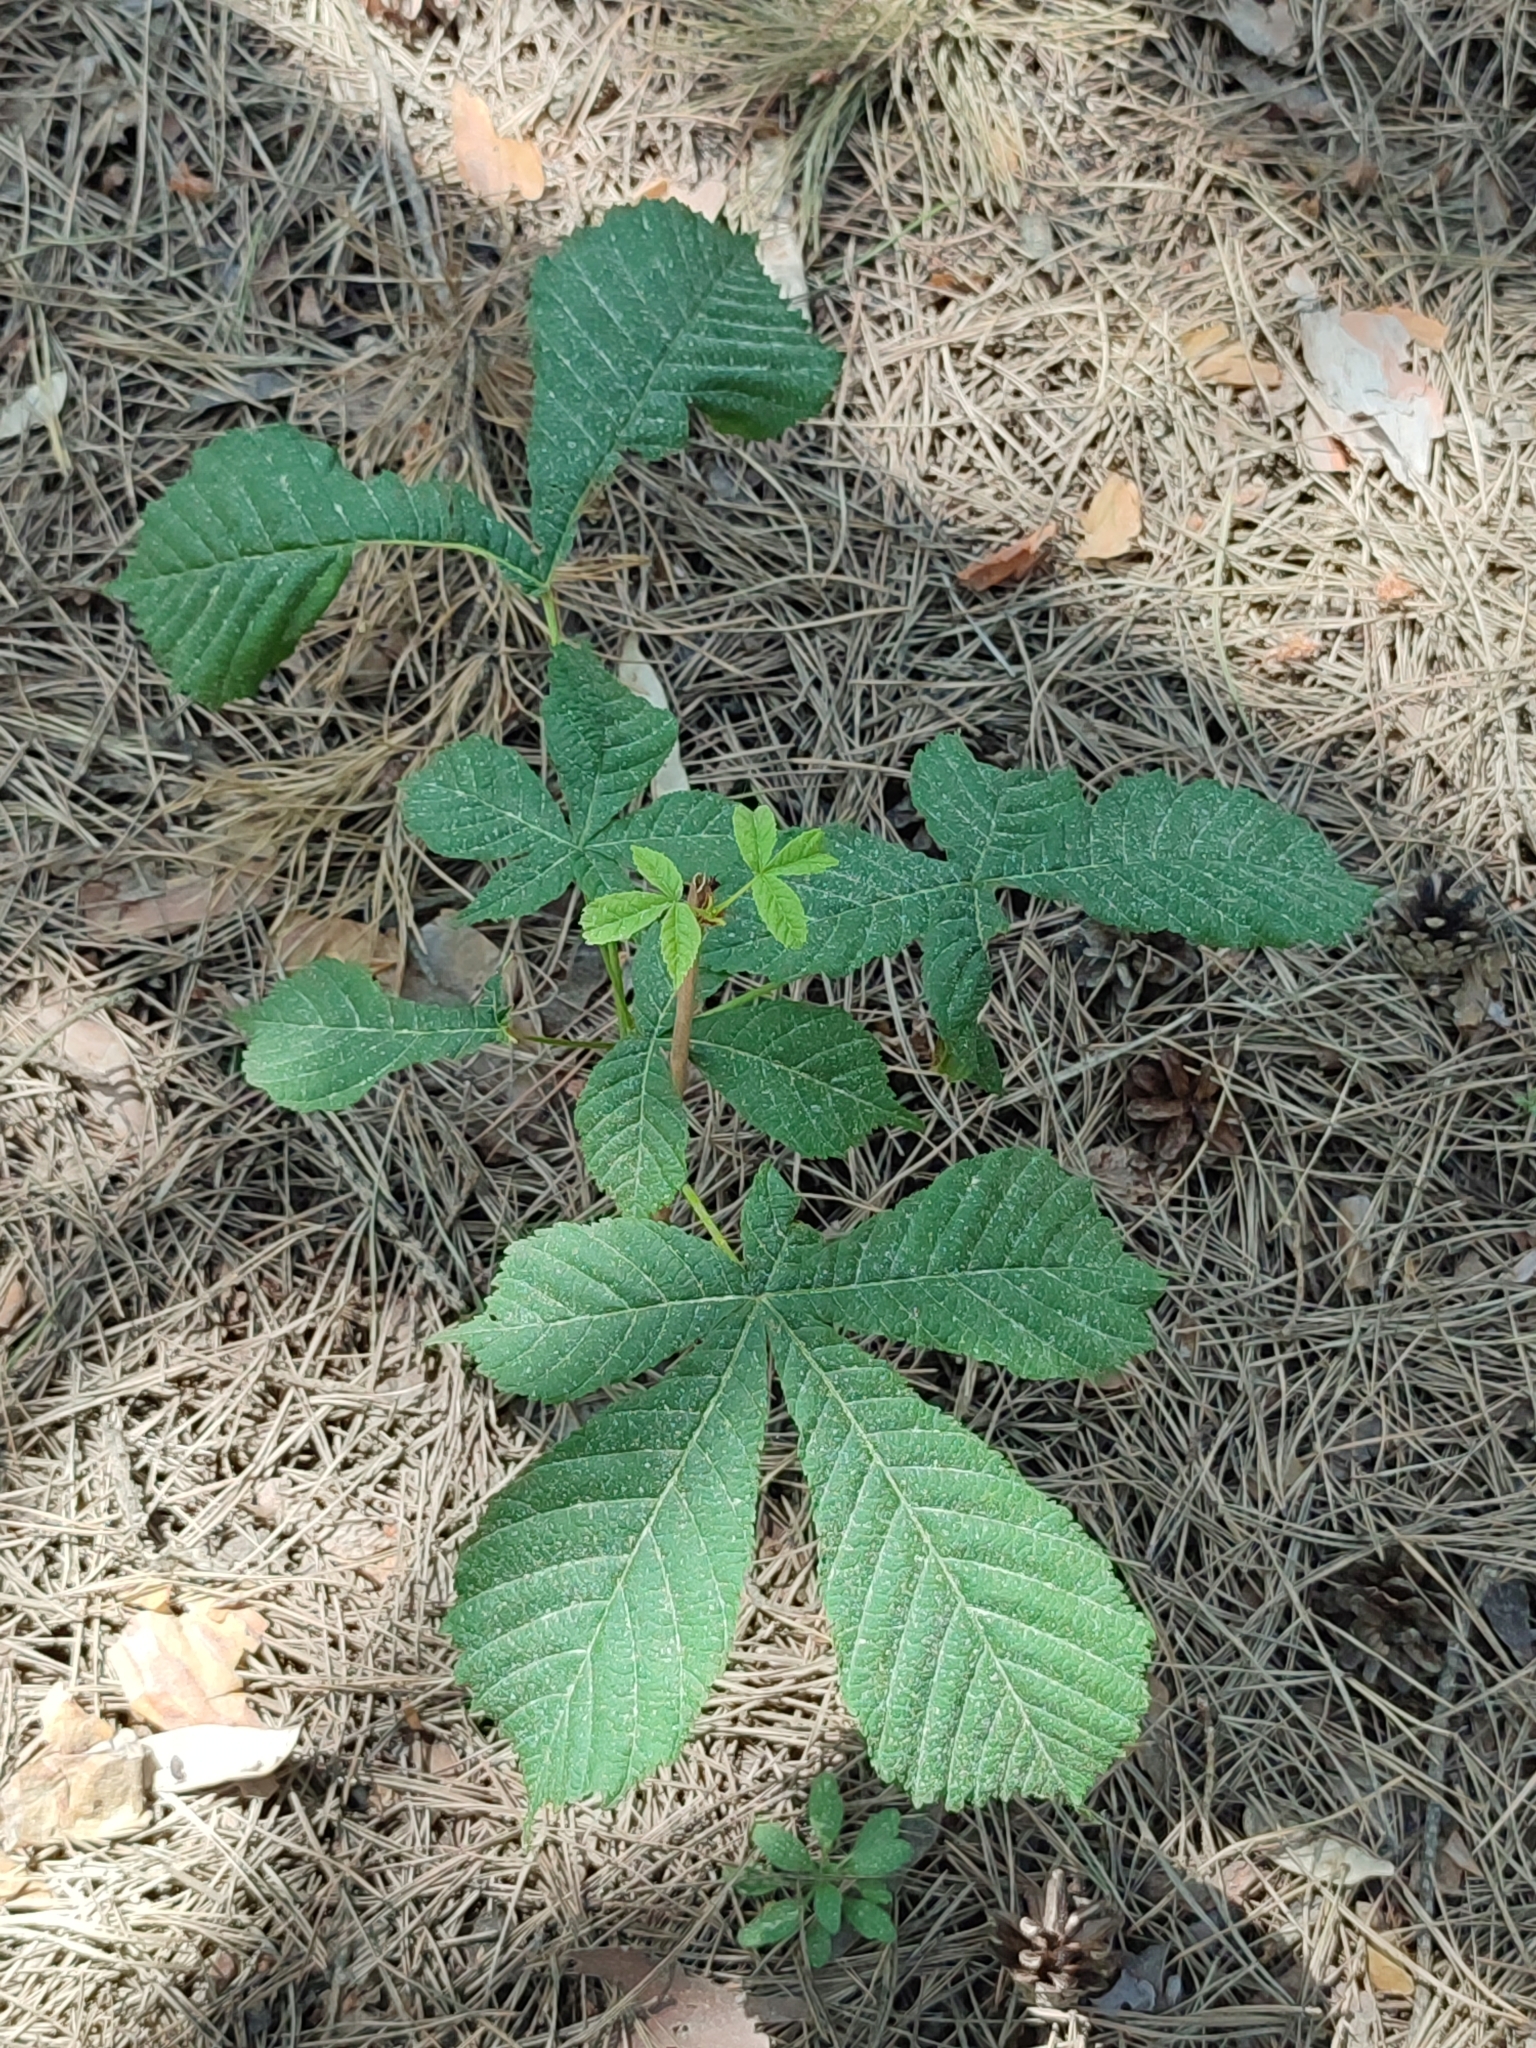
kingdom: Plantae
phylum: Tracheophyta
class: Magnoliopsida
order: Sapindales
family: Sapindaceae
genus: Aesculus
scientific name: Aesculus hippocastanum
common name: Horse-chestnut
